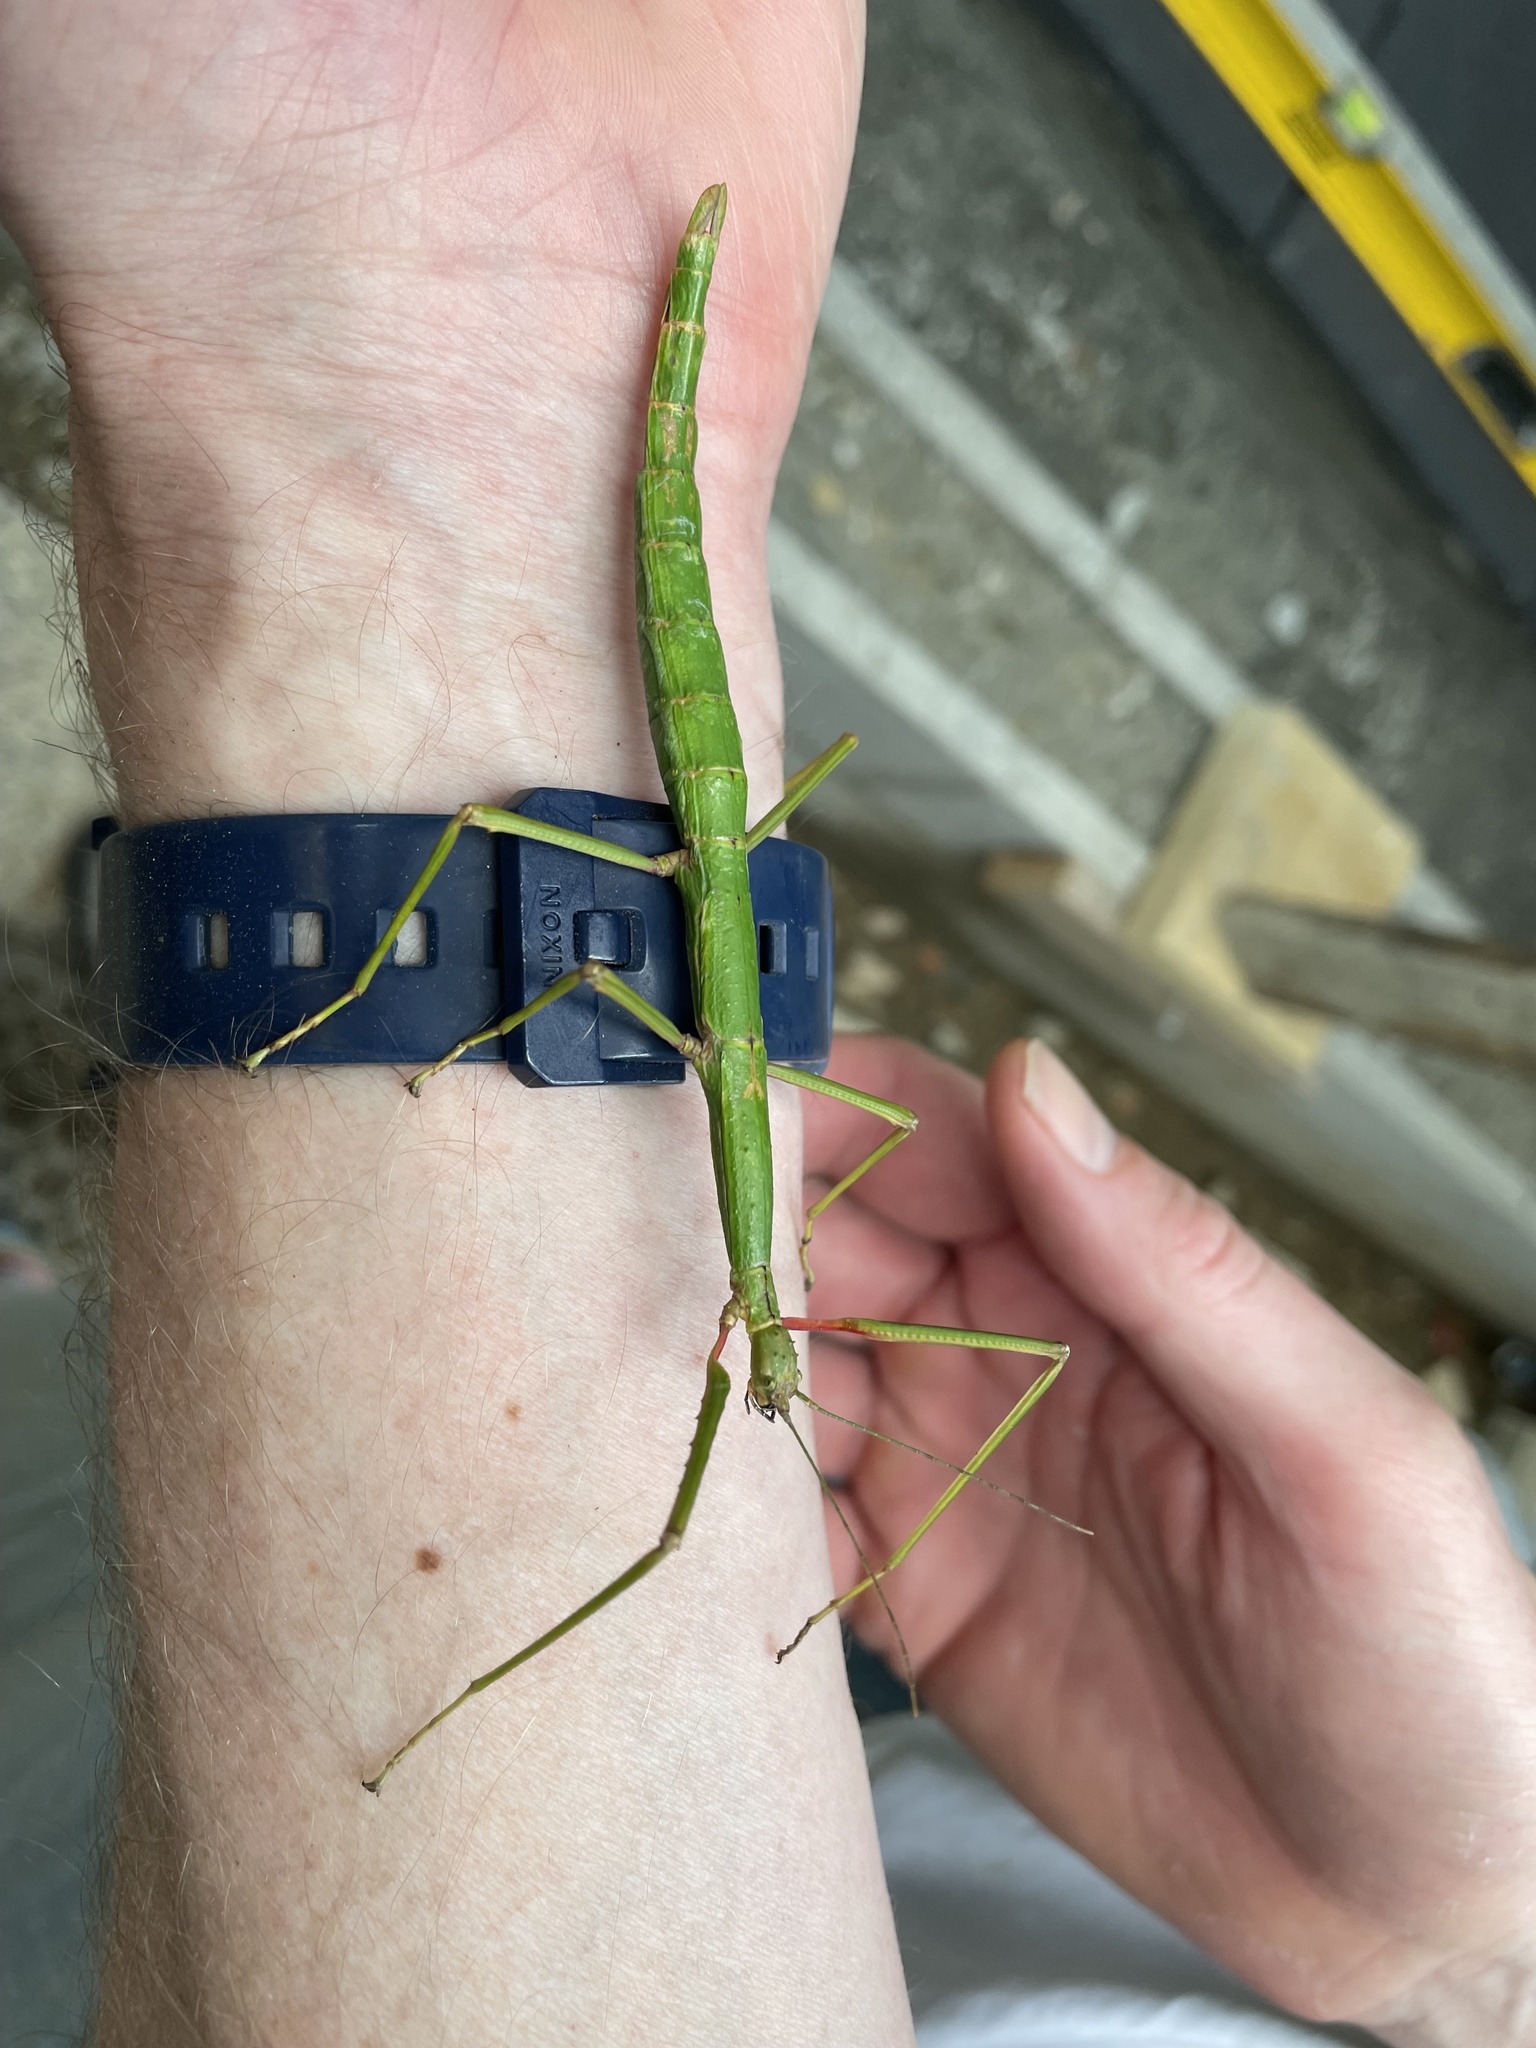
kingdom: Animalia
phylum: Arthropoda
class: Insecta
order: Phasmida
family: Phasmatidae
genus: Acanthoxyla
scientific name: Acanthoxyla inermis
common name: Unarmed stick insect
